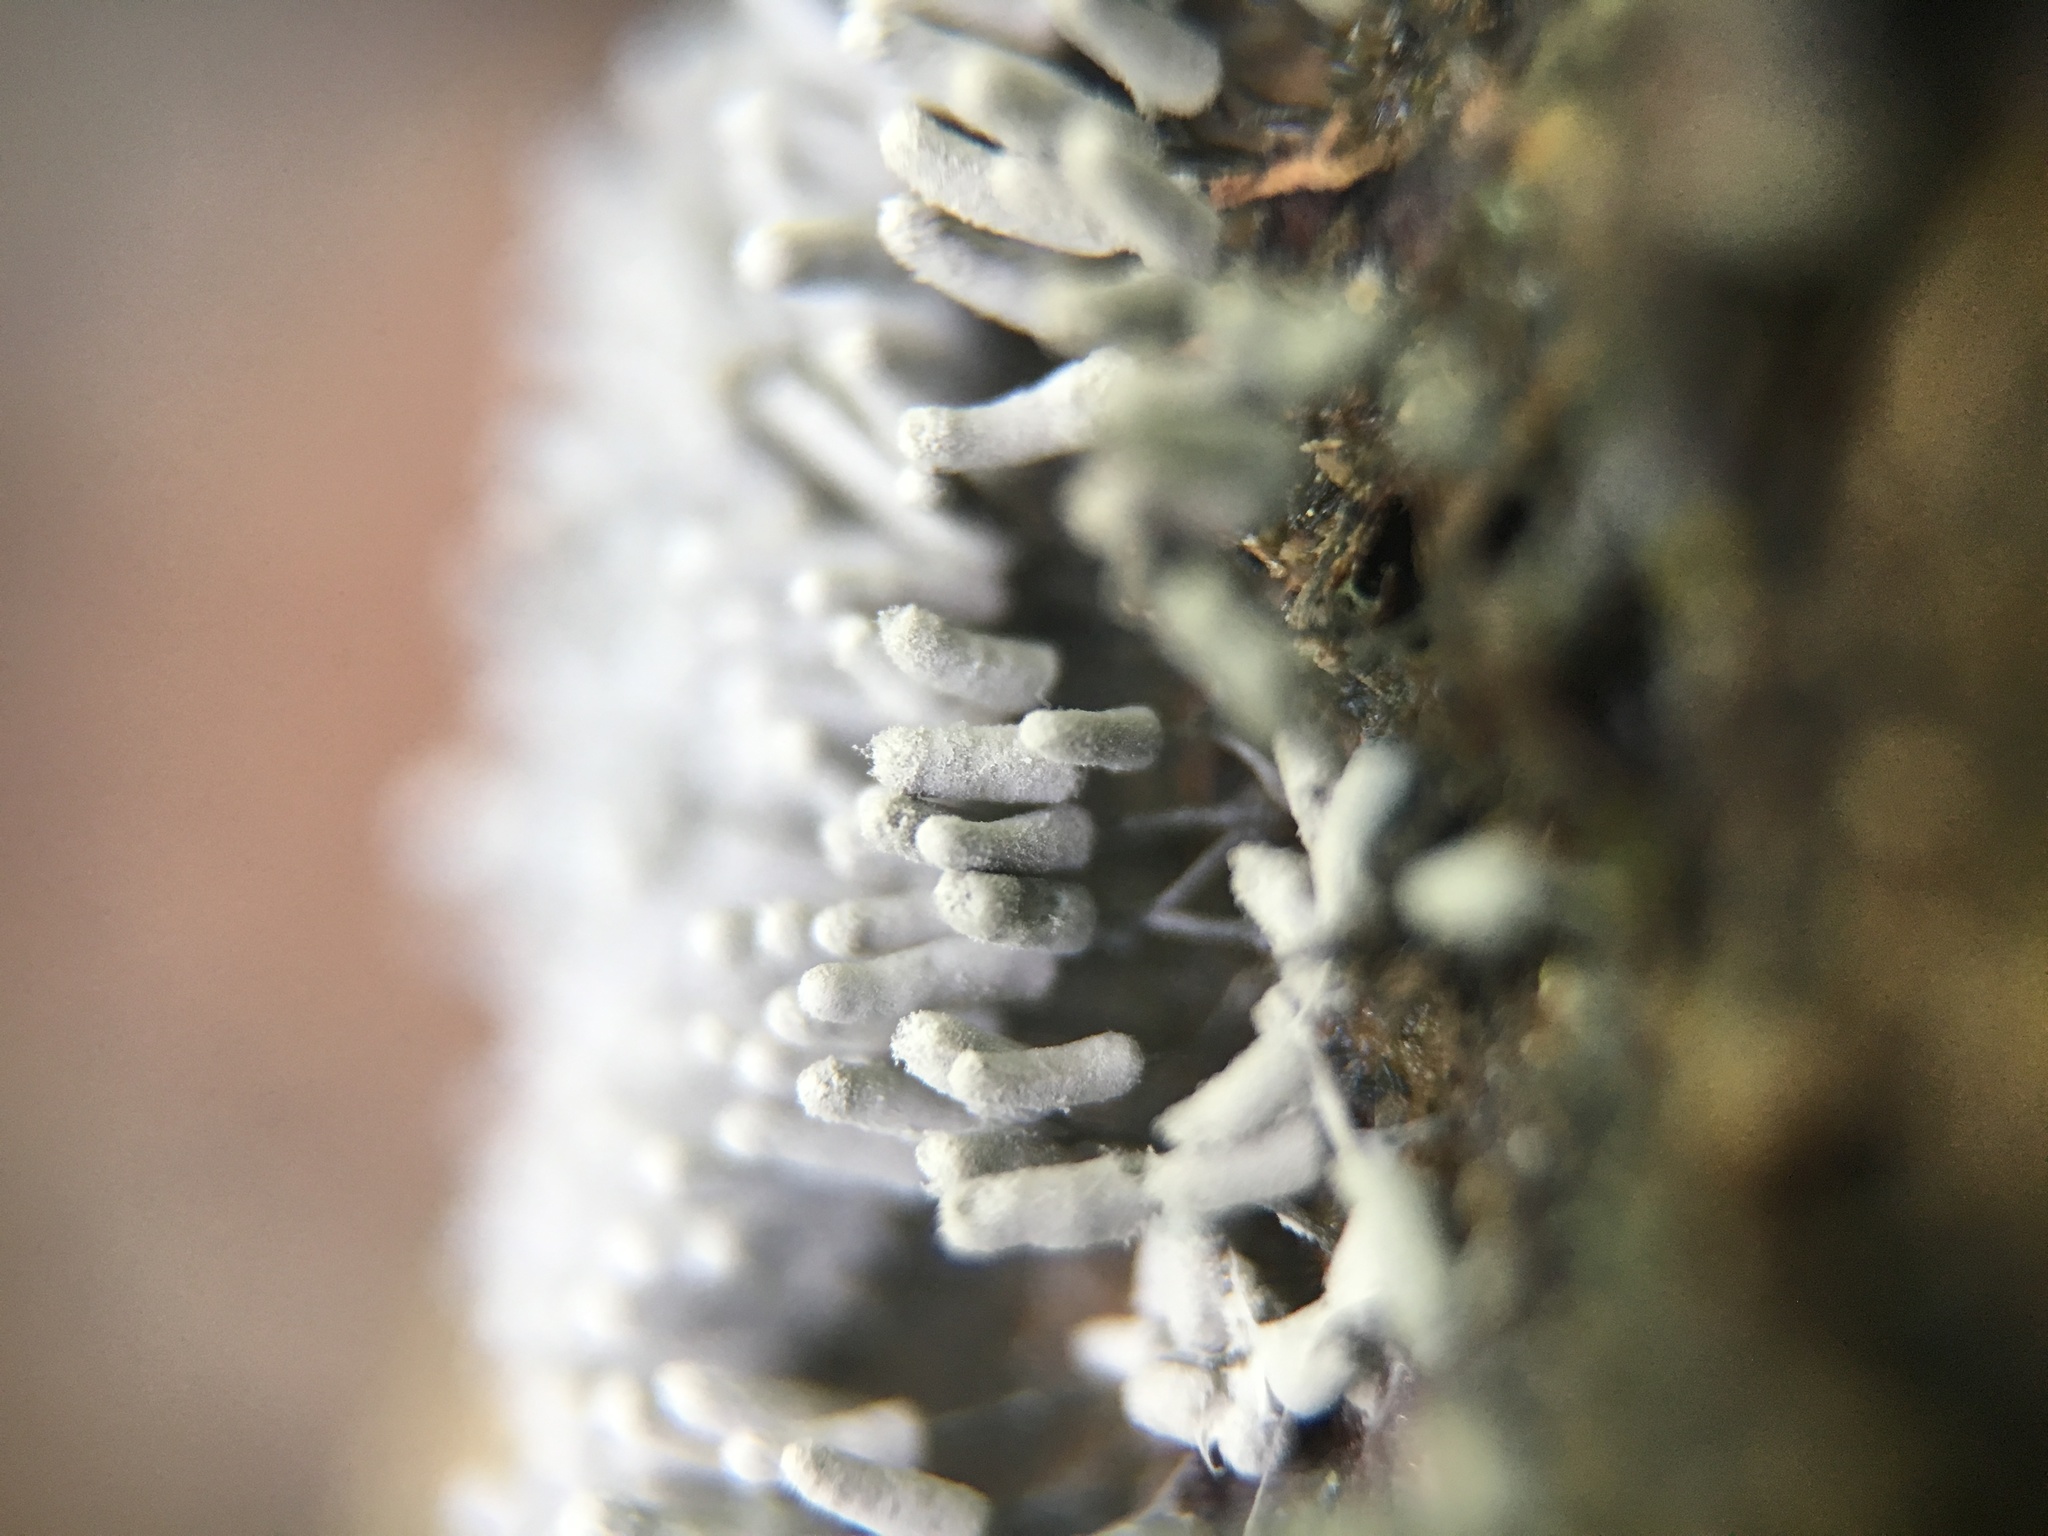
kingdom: Protozoa
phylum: Mycetozoa
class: Myxomycetes
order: Trichiales
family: Arcyriaceae
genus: Arcyria
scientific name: Arcyria cinerea
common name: White carnival candy slime mold
